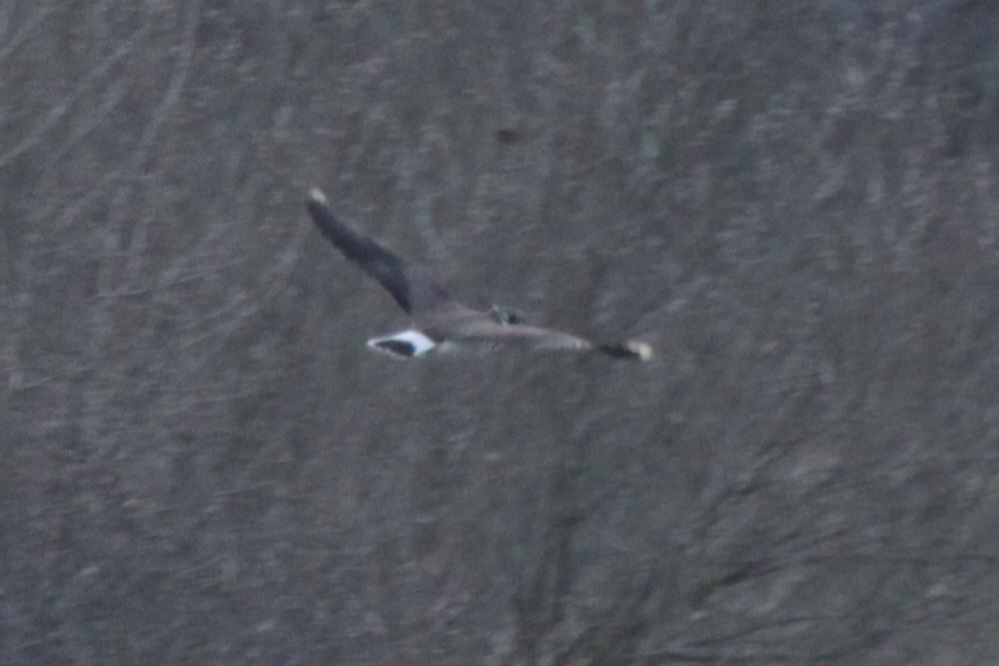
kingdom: Animalia
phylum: Chordata
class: Aves
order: Charadriiformes
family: Charadriidae
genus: Vanellus
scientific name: Vanellus vanellus
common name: Northern lapwing
